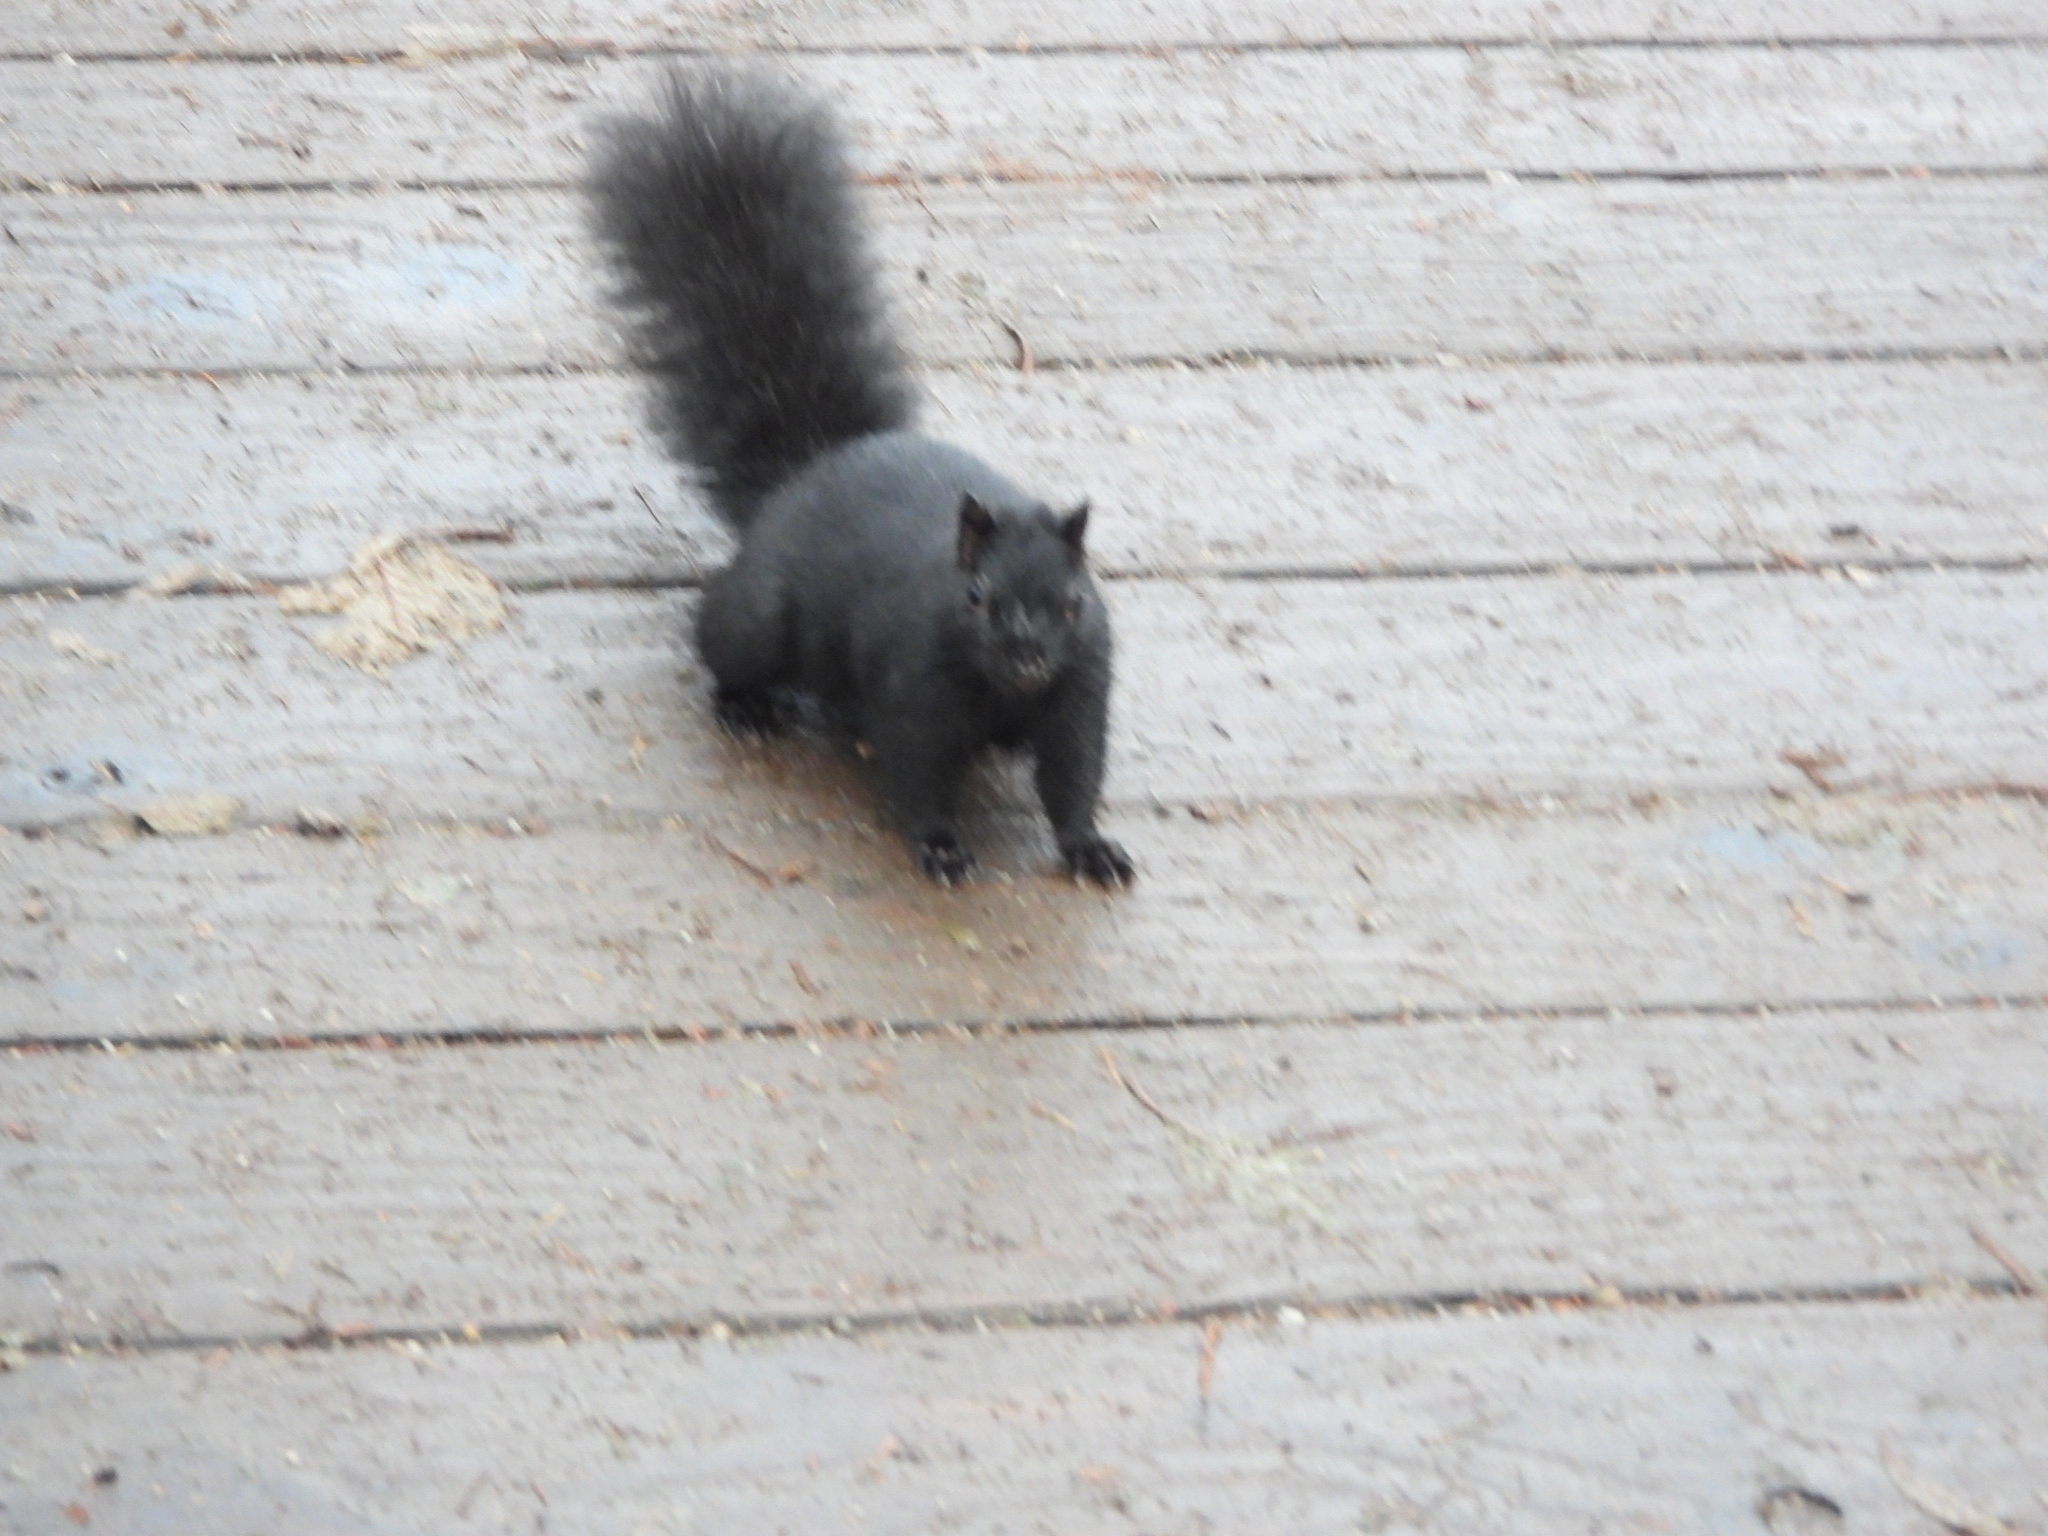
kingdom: Animalia
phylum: Chordata
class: Mammalia
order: Rodentia
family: Sciuridae
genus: Sciurus
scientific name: Sciurus carolinensis
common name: Eastern gray squirrel
